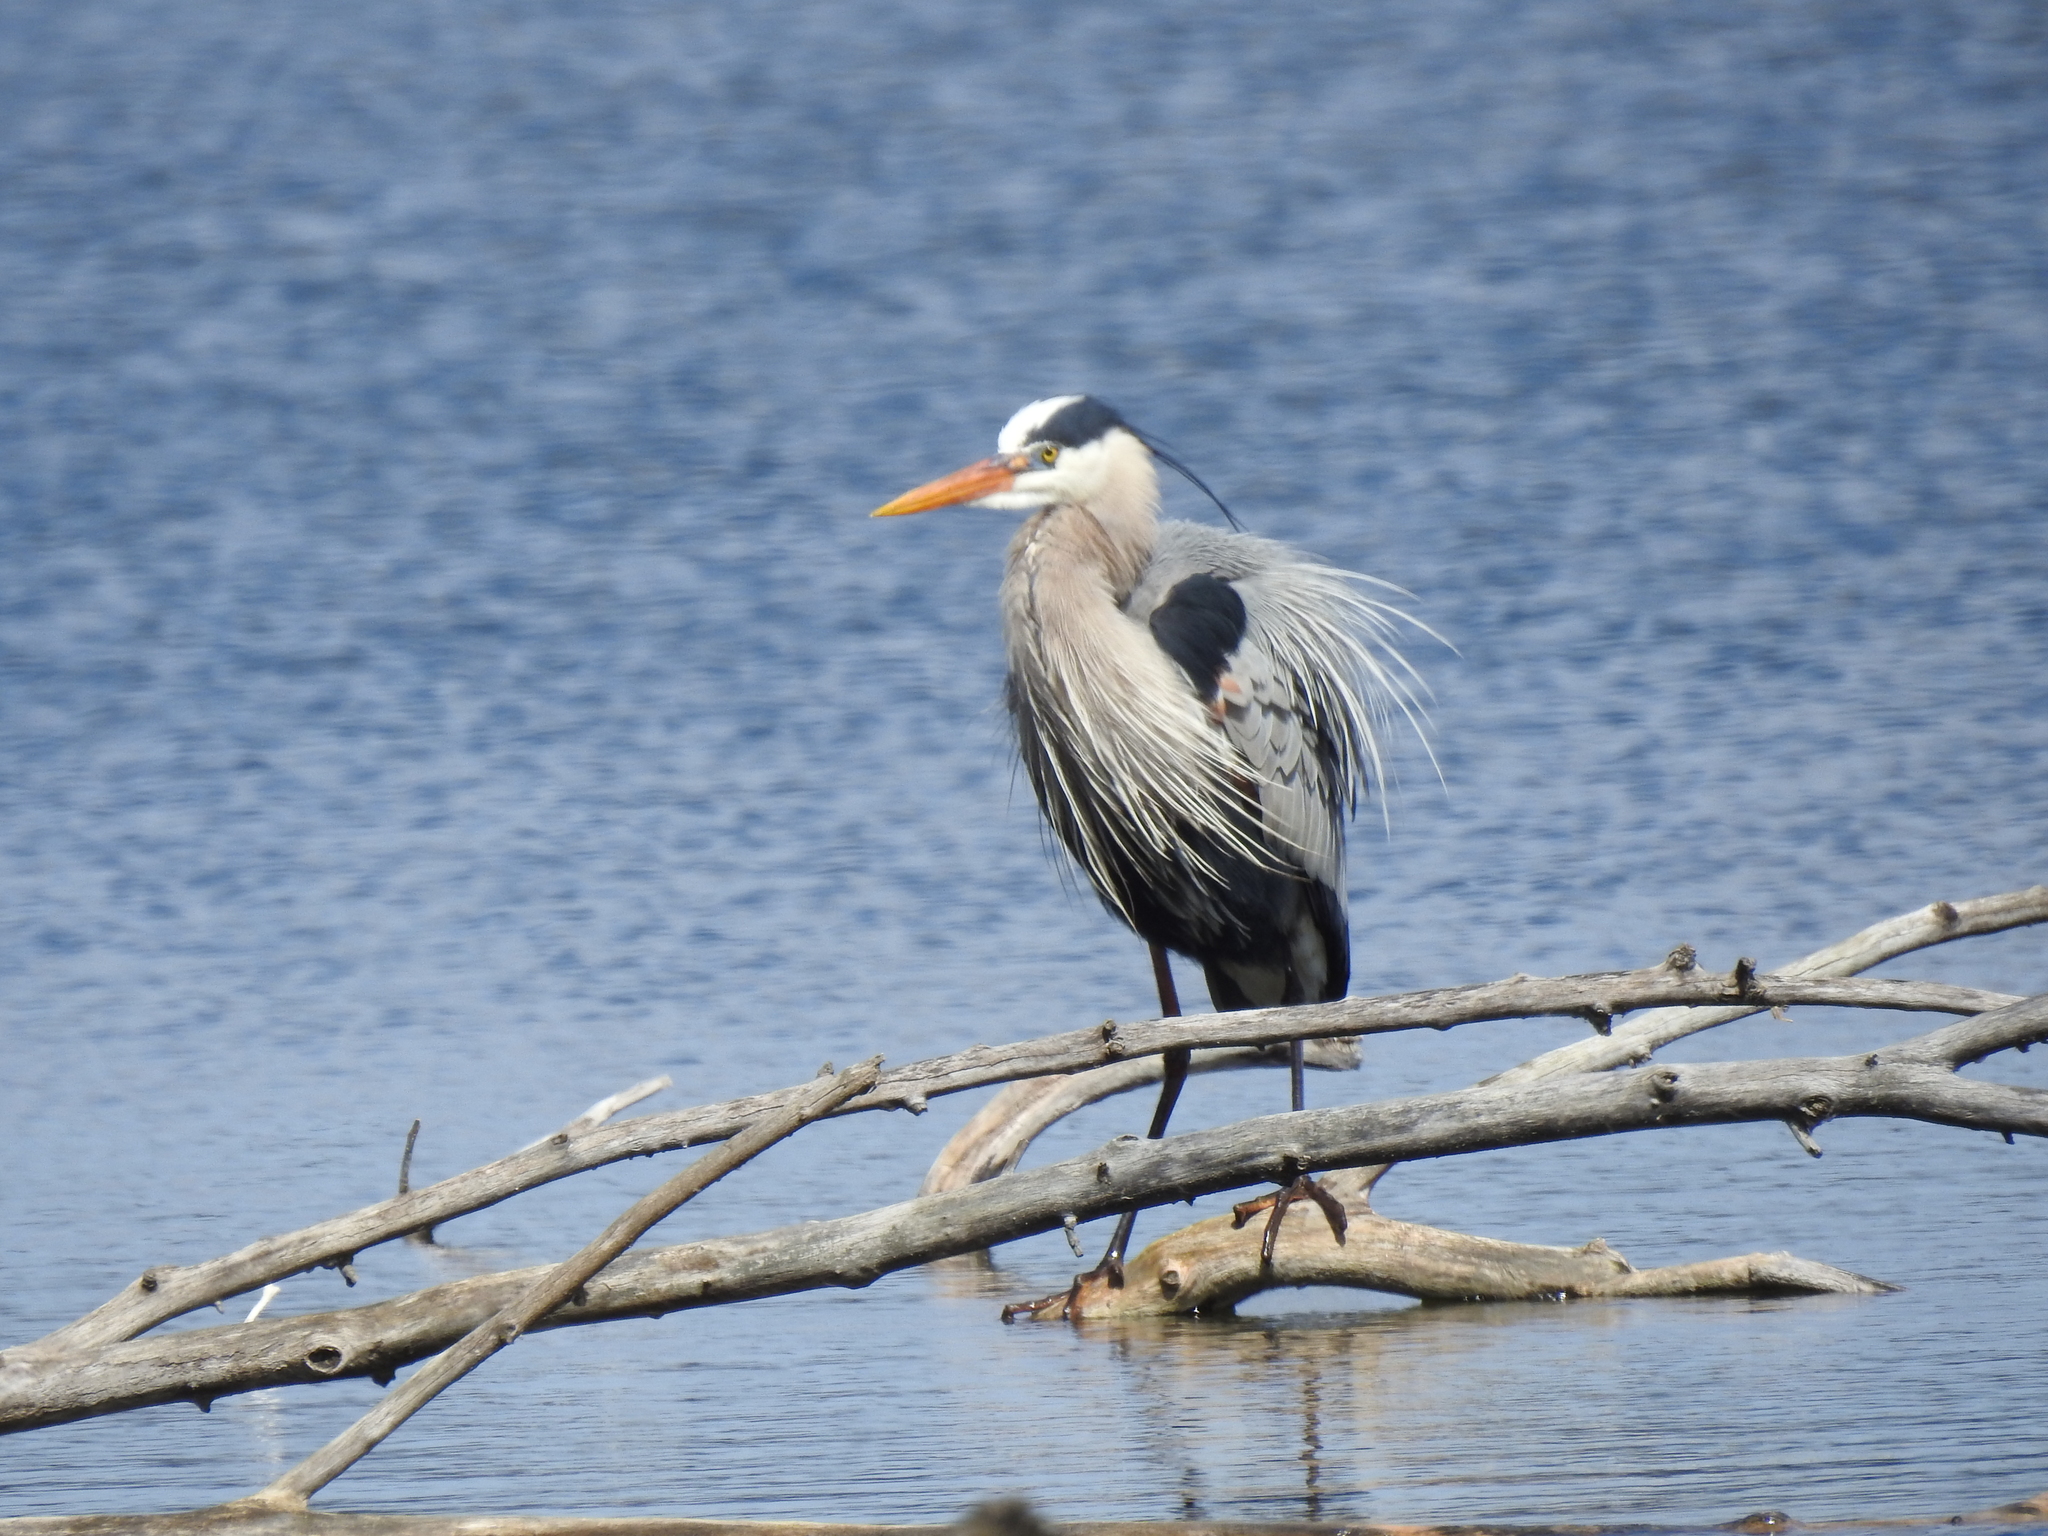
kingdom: Animalia
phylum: Chordata
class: Aves
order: Pelecaniformes
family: Ardeidae
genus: Ardea
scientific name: Ardea herodias
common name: Great blue heron
